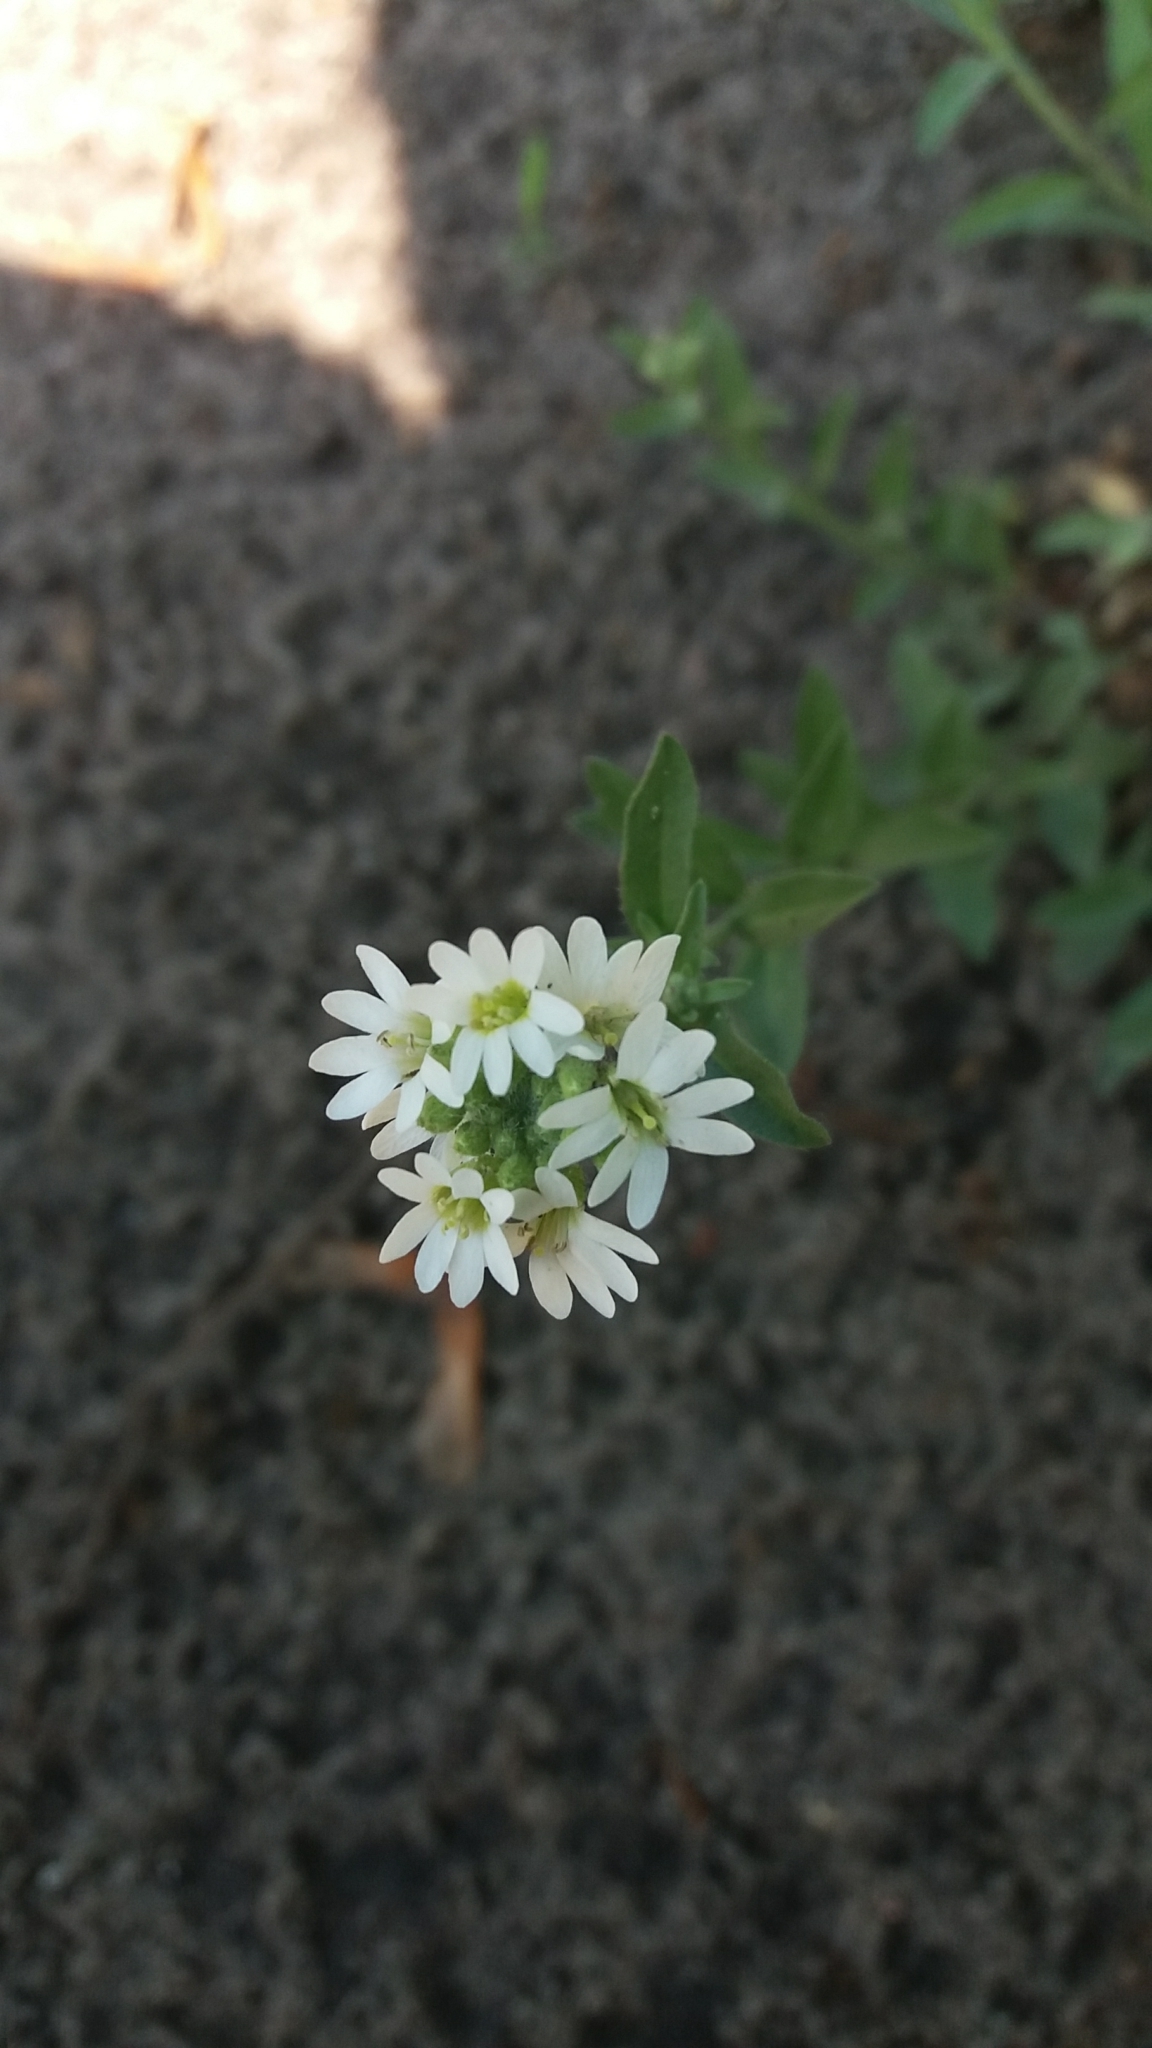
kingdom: Plantae
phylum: Tracheophyta
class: Magnoliopsida
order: Brassicales
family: Brassicaceae
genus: Berteroa
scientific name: Berteroa incana
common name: Hoary alison
